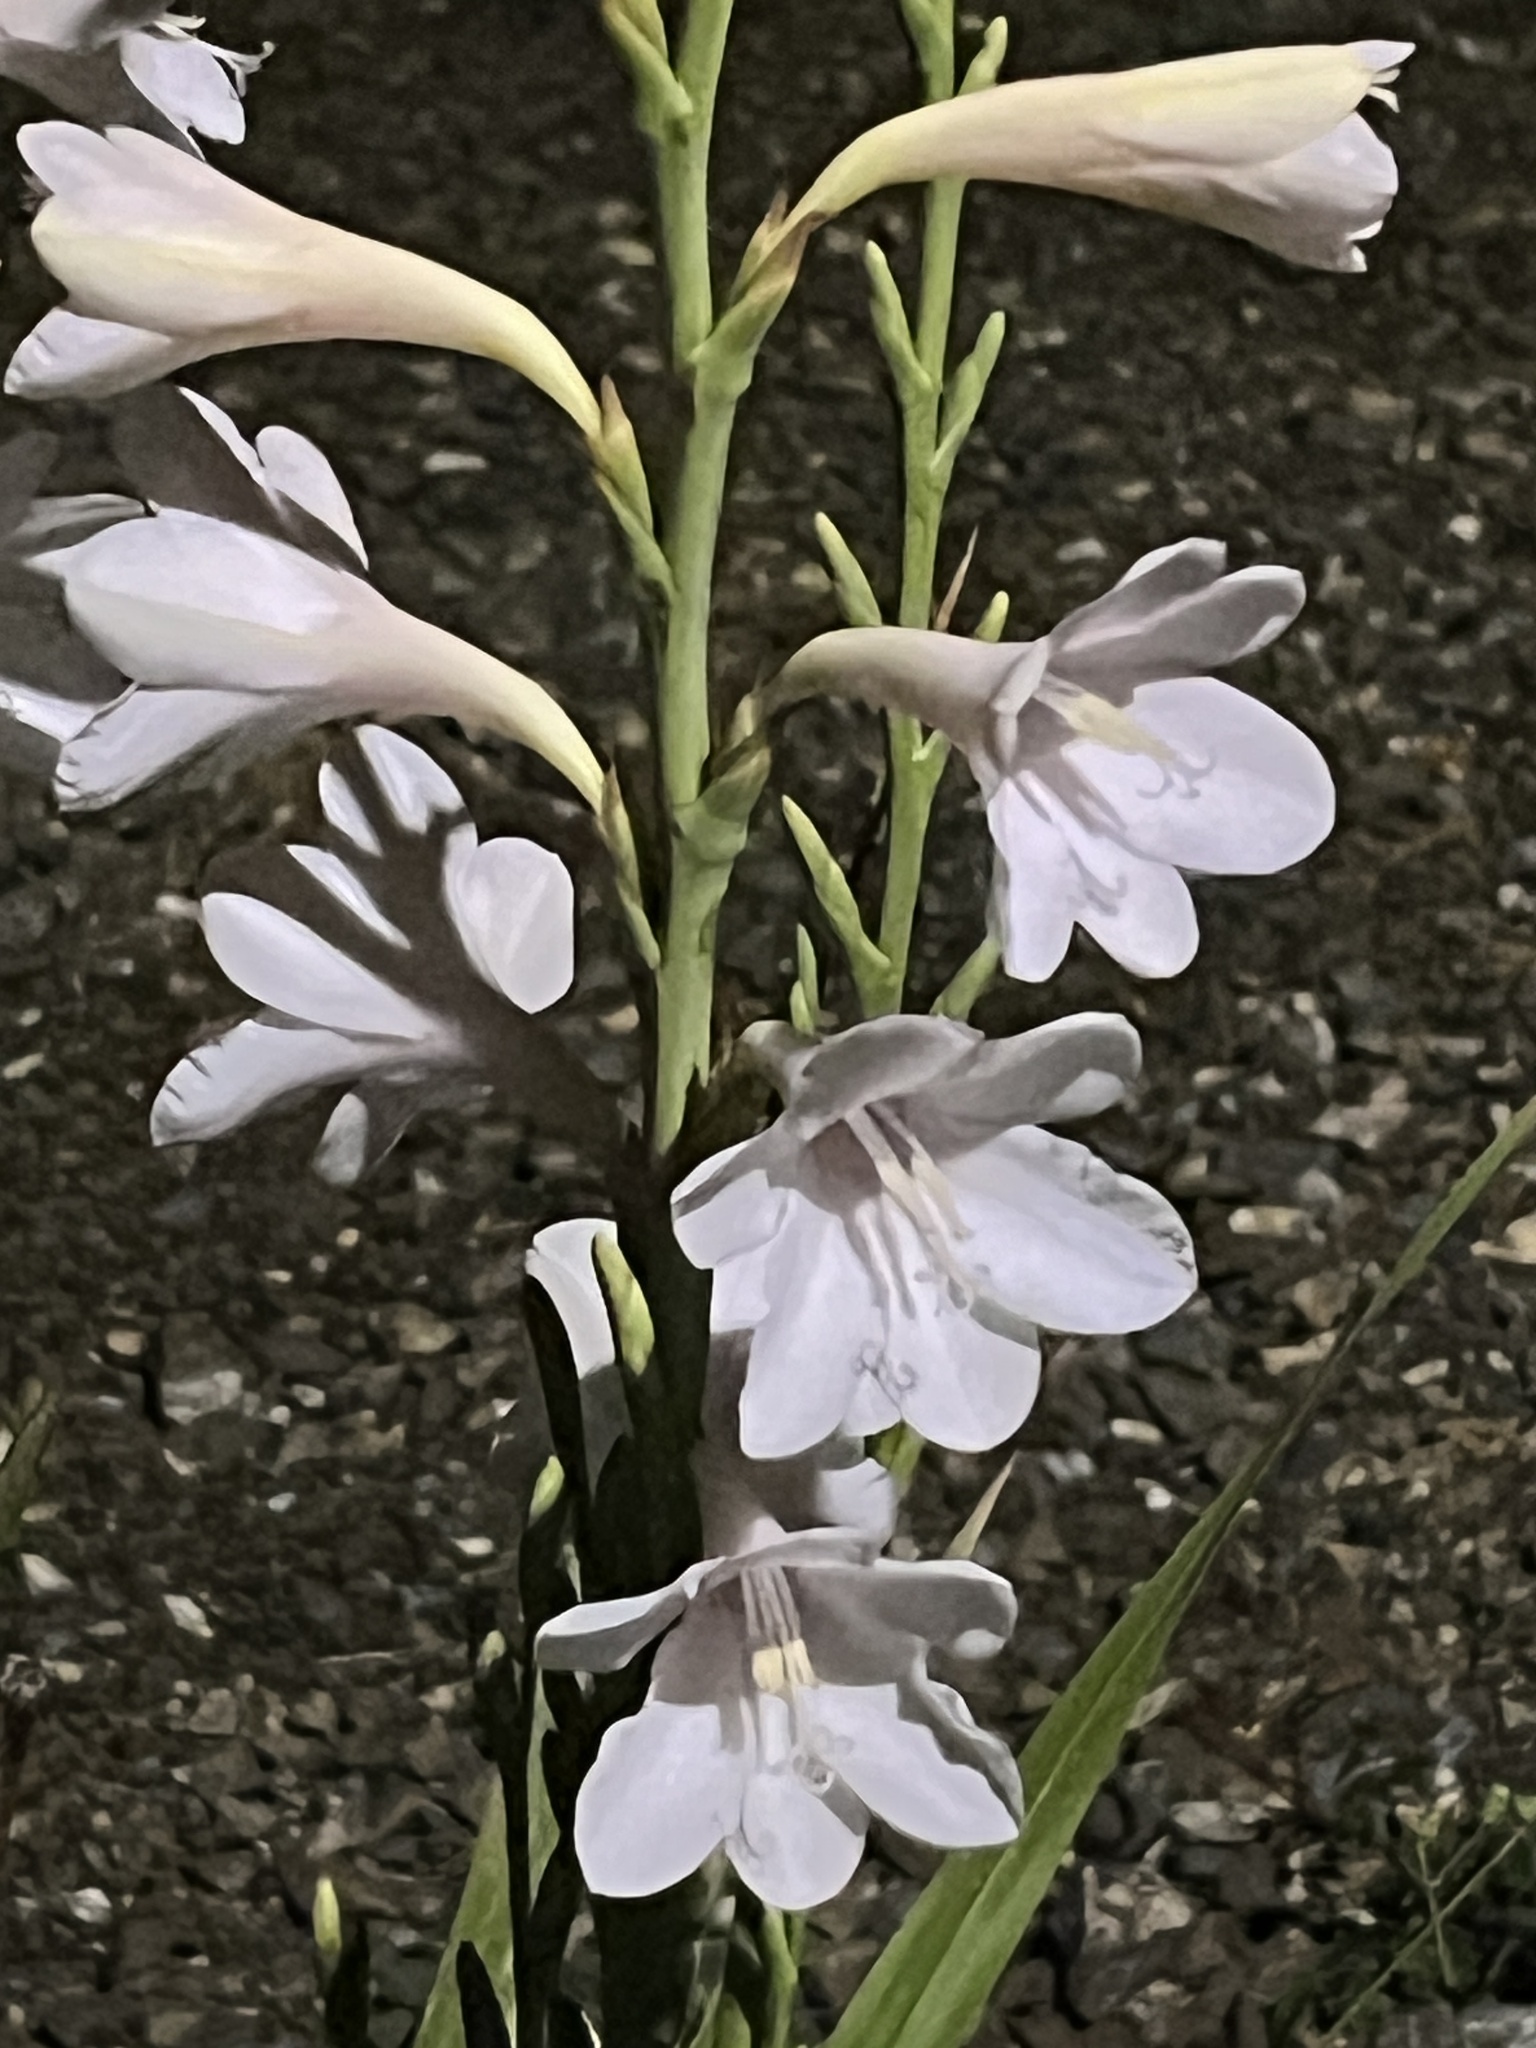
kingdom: Plantae
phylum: Tracheophyta
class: Liliopsida
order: Asparagales
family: Iridaceae
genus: Watsonia
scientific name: Watsonia borbonica
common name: Bugle-lily
